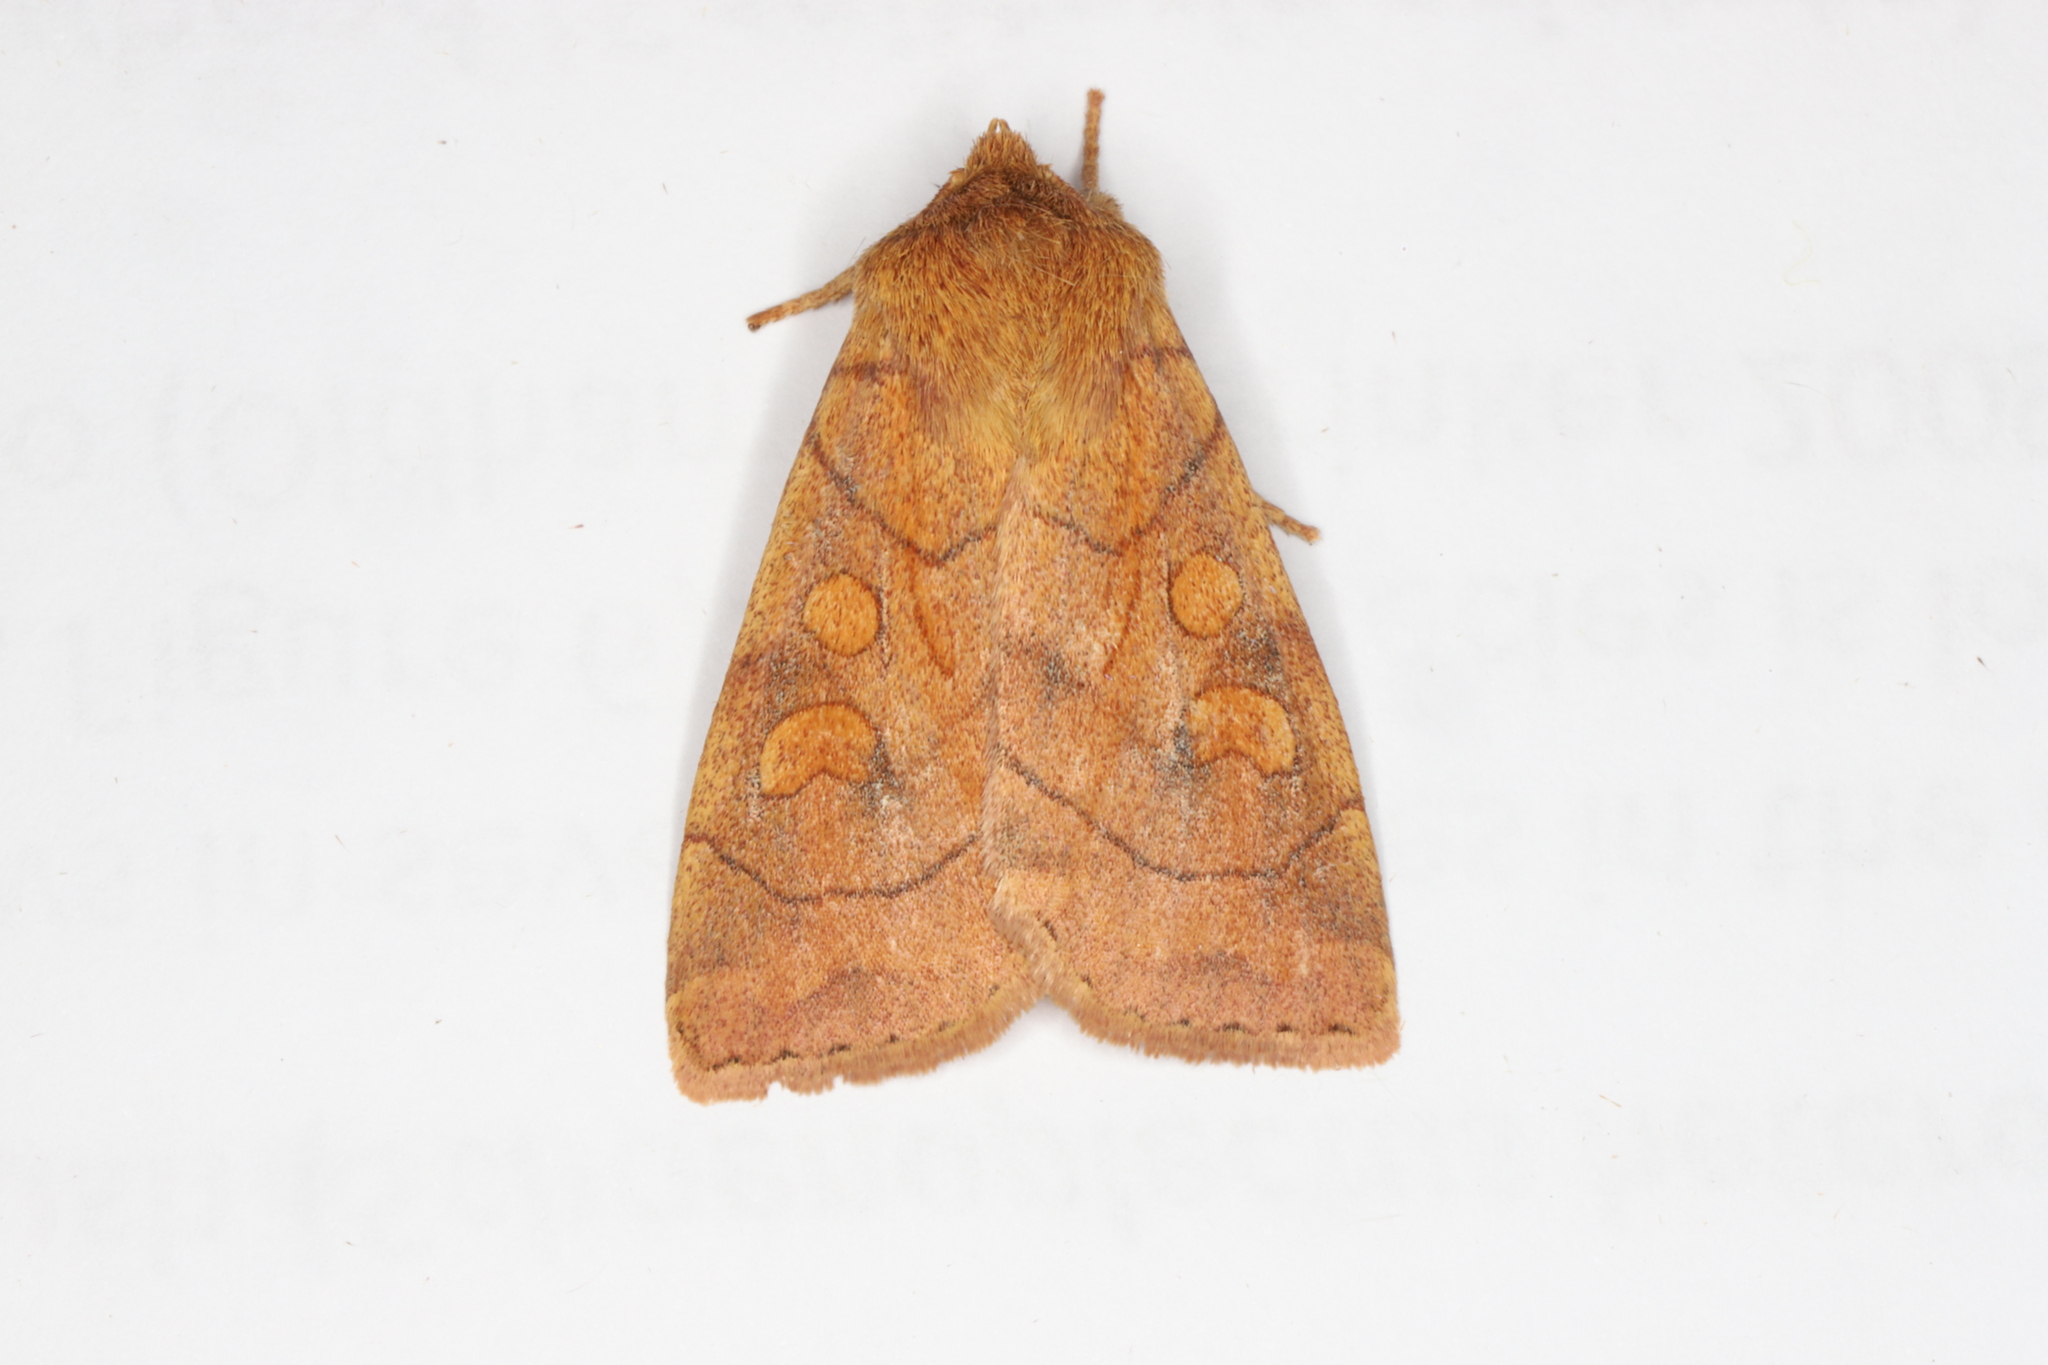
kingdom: Animalia
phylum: Arthropoda
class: Insecta
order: Lepidoptera
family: Noctuidae
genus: Enargia
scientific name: Enargia decolor
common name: Aspen twoleaf tier moth
